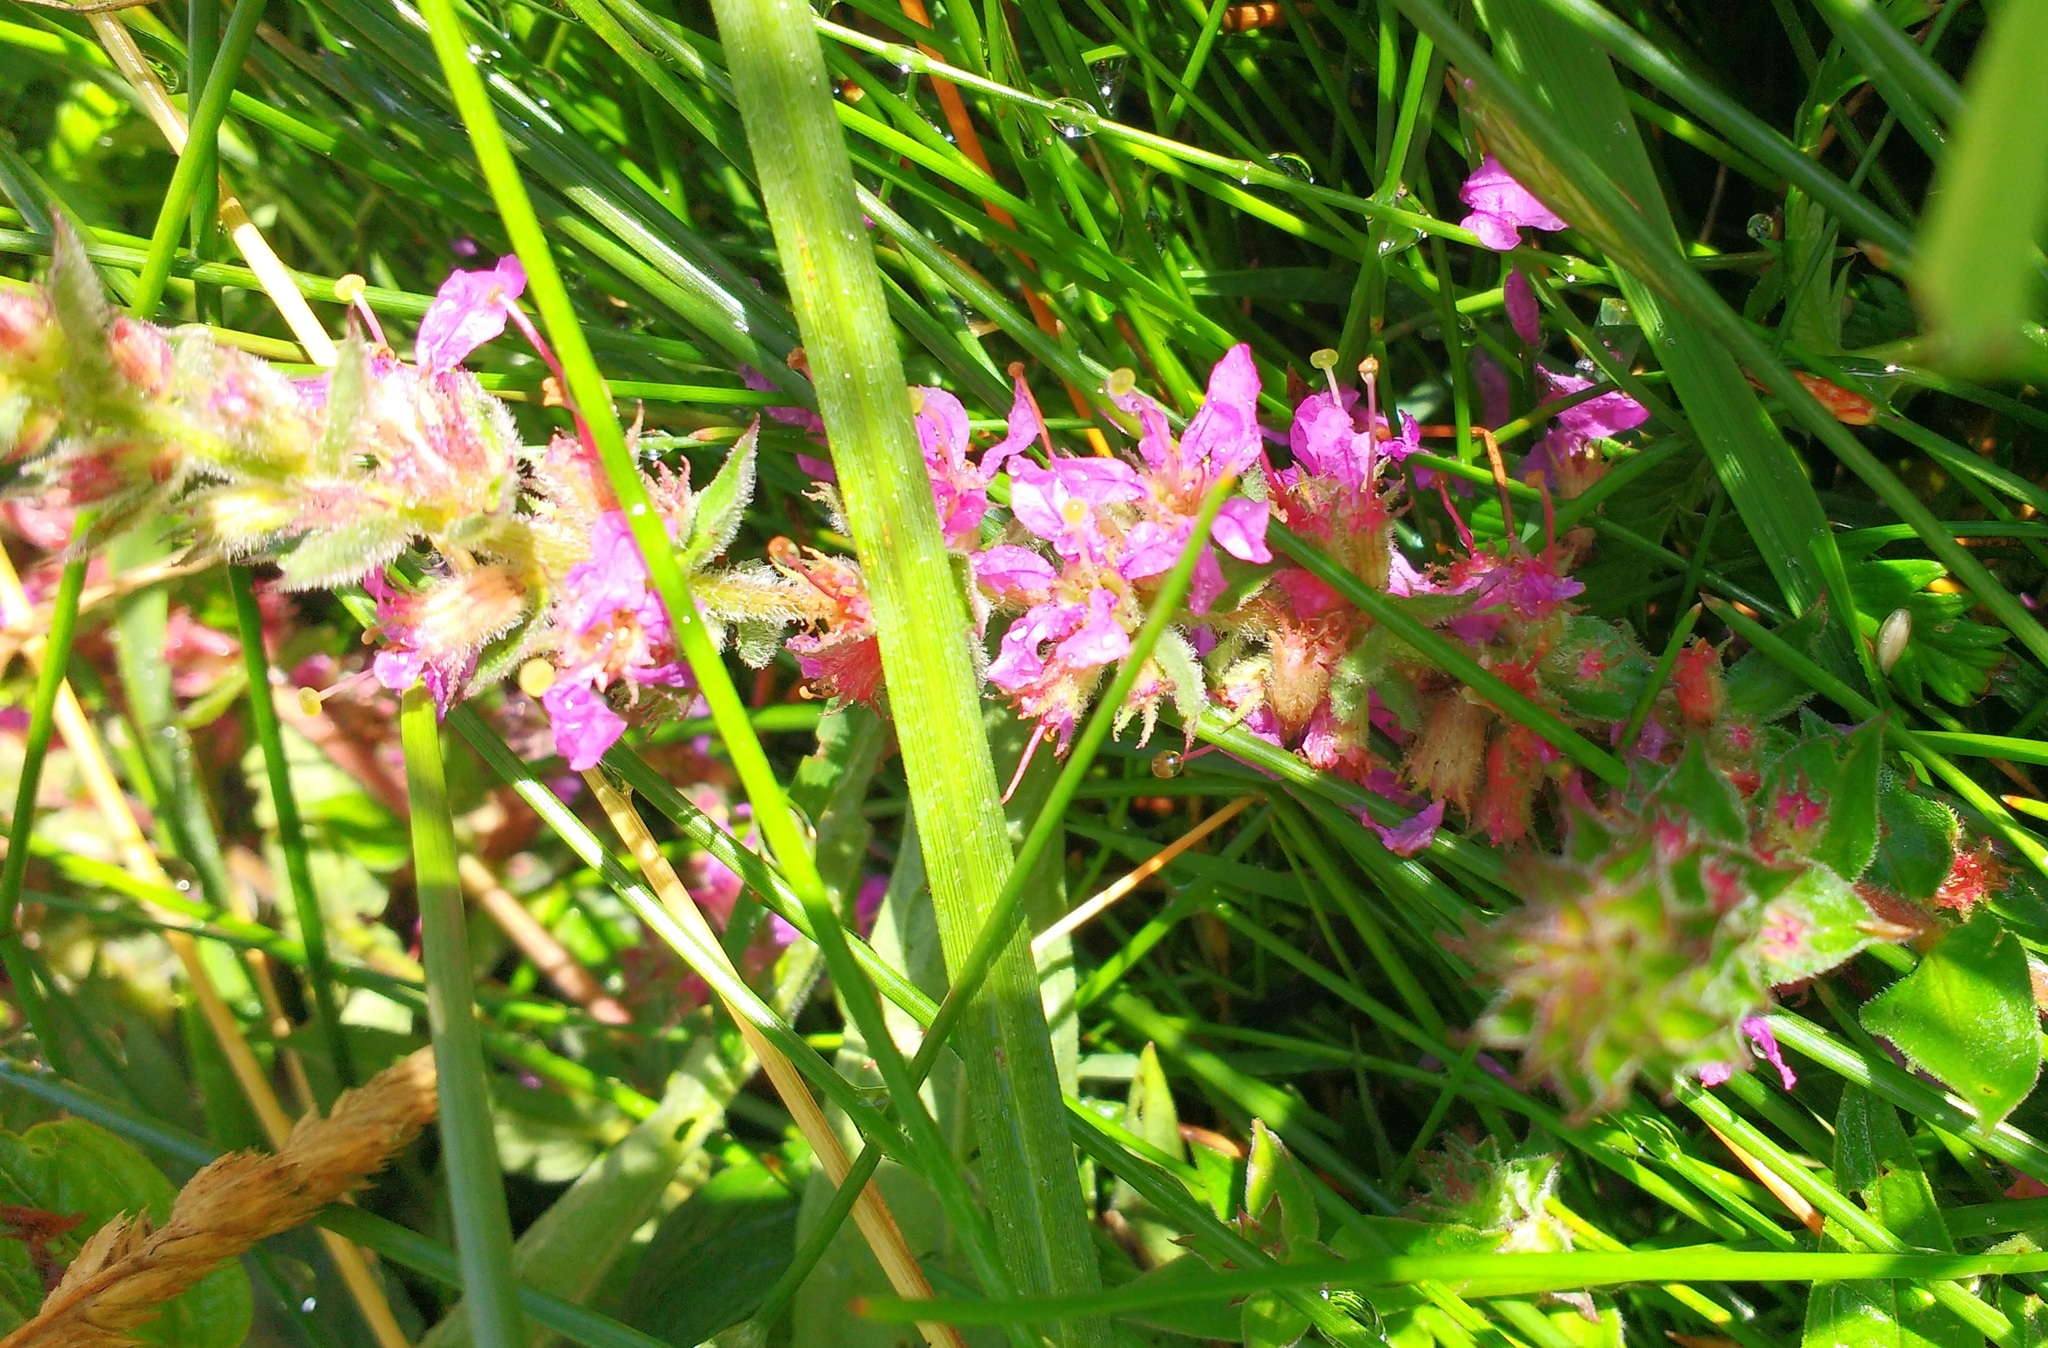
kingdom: Plantae
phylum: Tracheophyta
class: Magnoliopsida
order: Myrtales
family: Lythraceae
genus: Lythrum
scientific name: Lythrum salicaria
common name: Purple loosestrife
